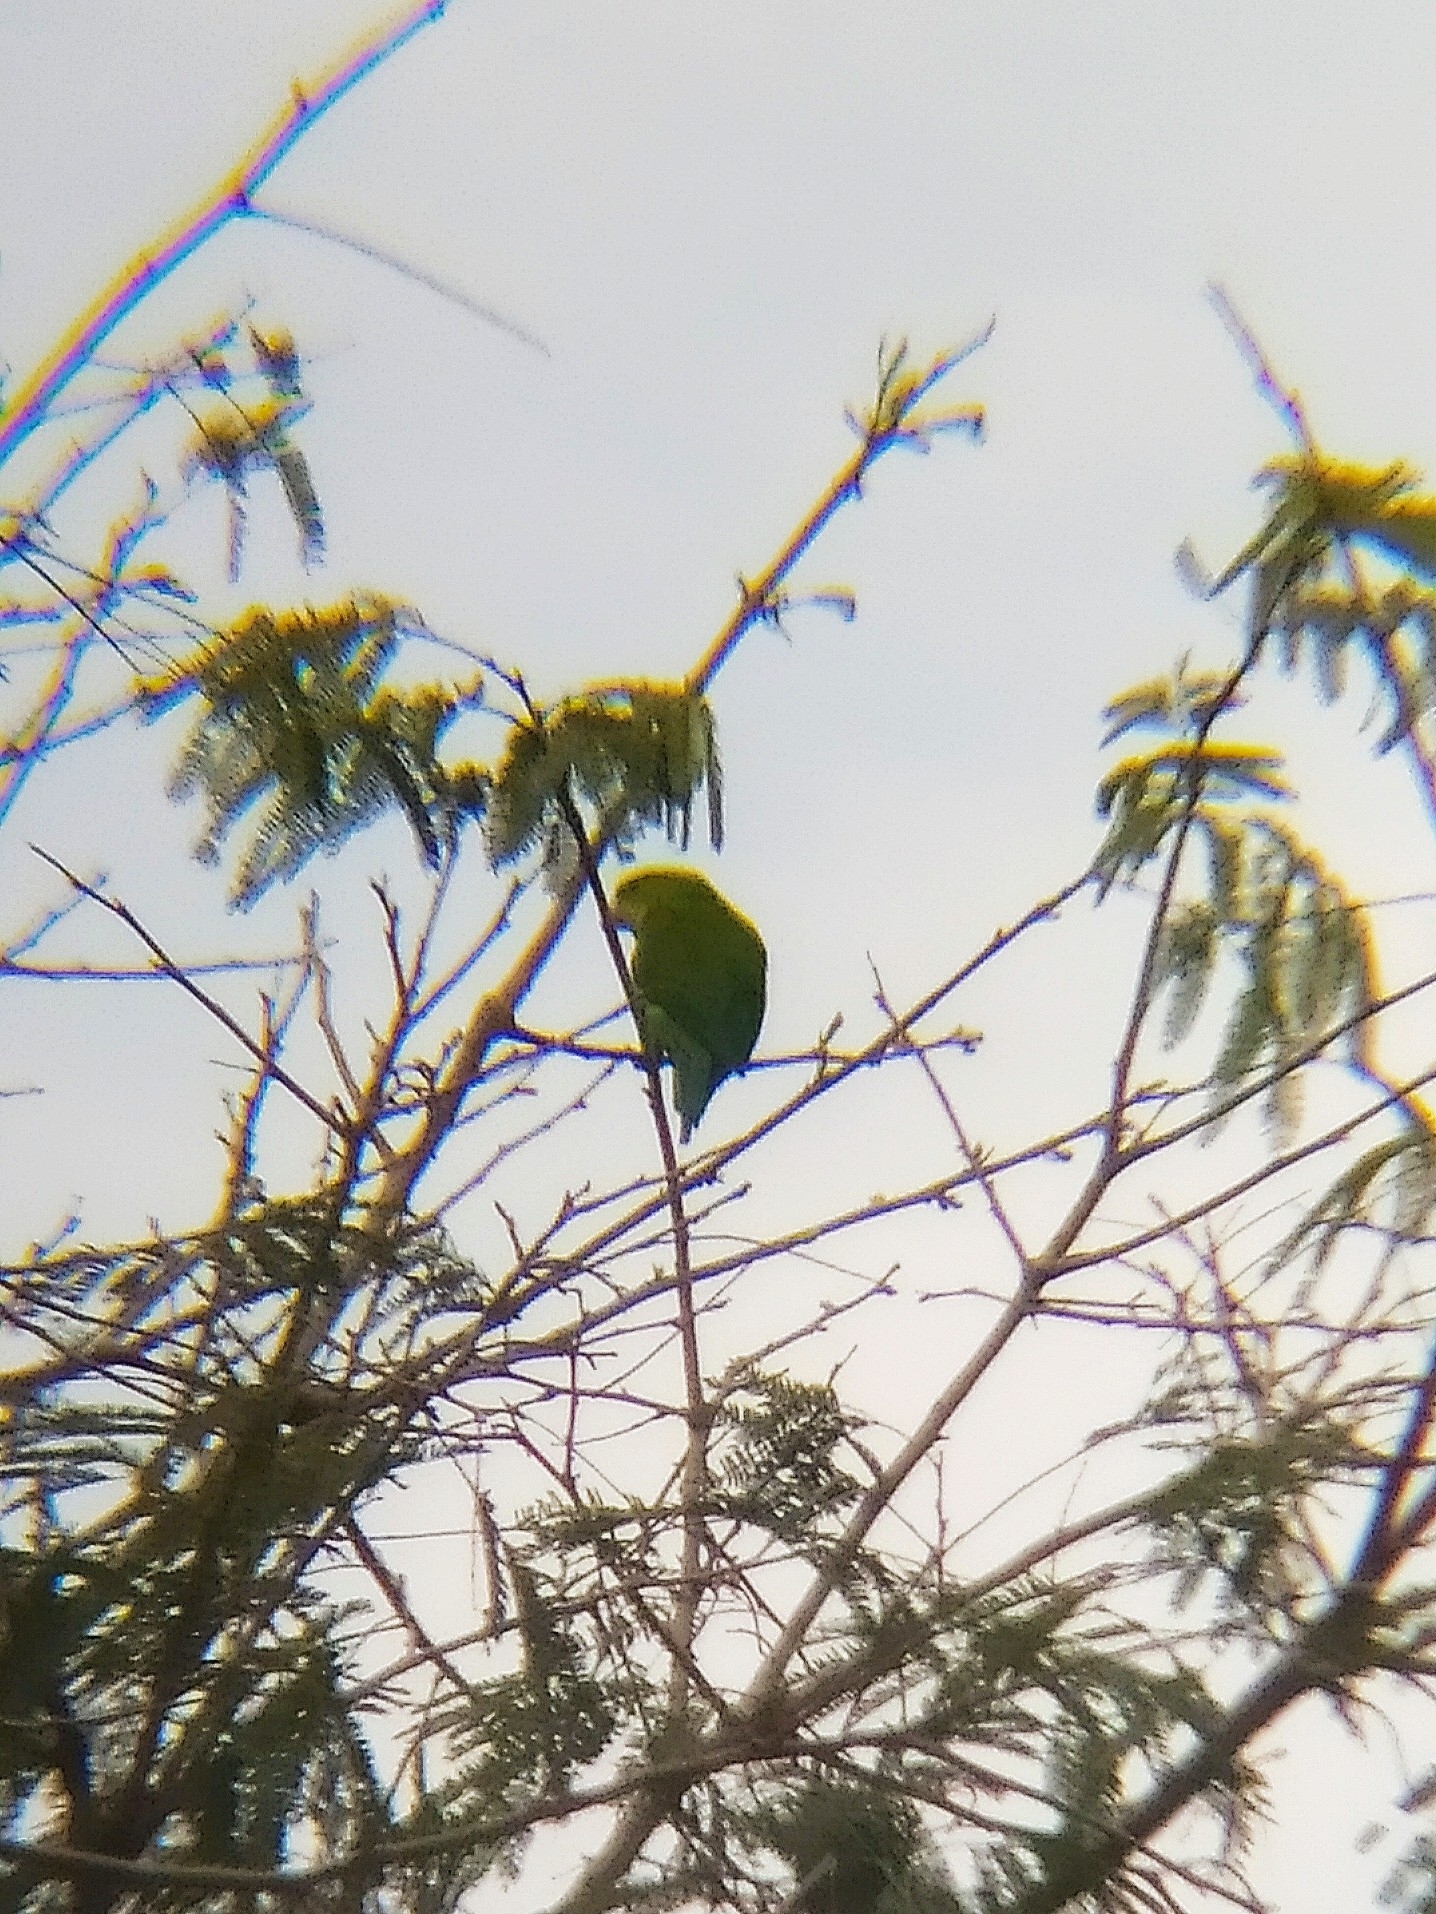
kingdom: Animalia
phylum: Chordata
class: Aves
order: Psittaciformes
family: Psittacidae
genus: Brotogeris
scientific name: Brotogeris tirica
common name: Plain parakeet
